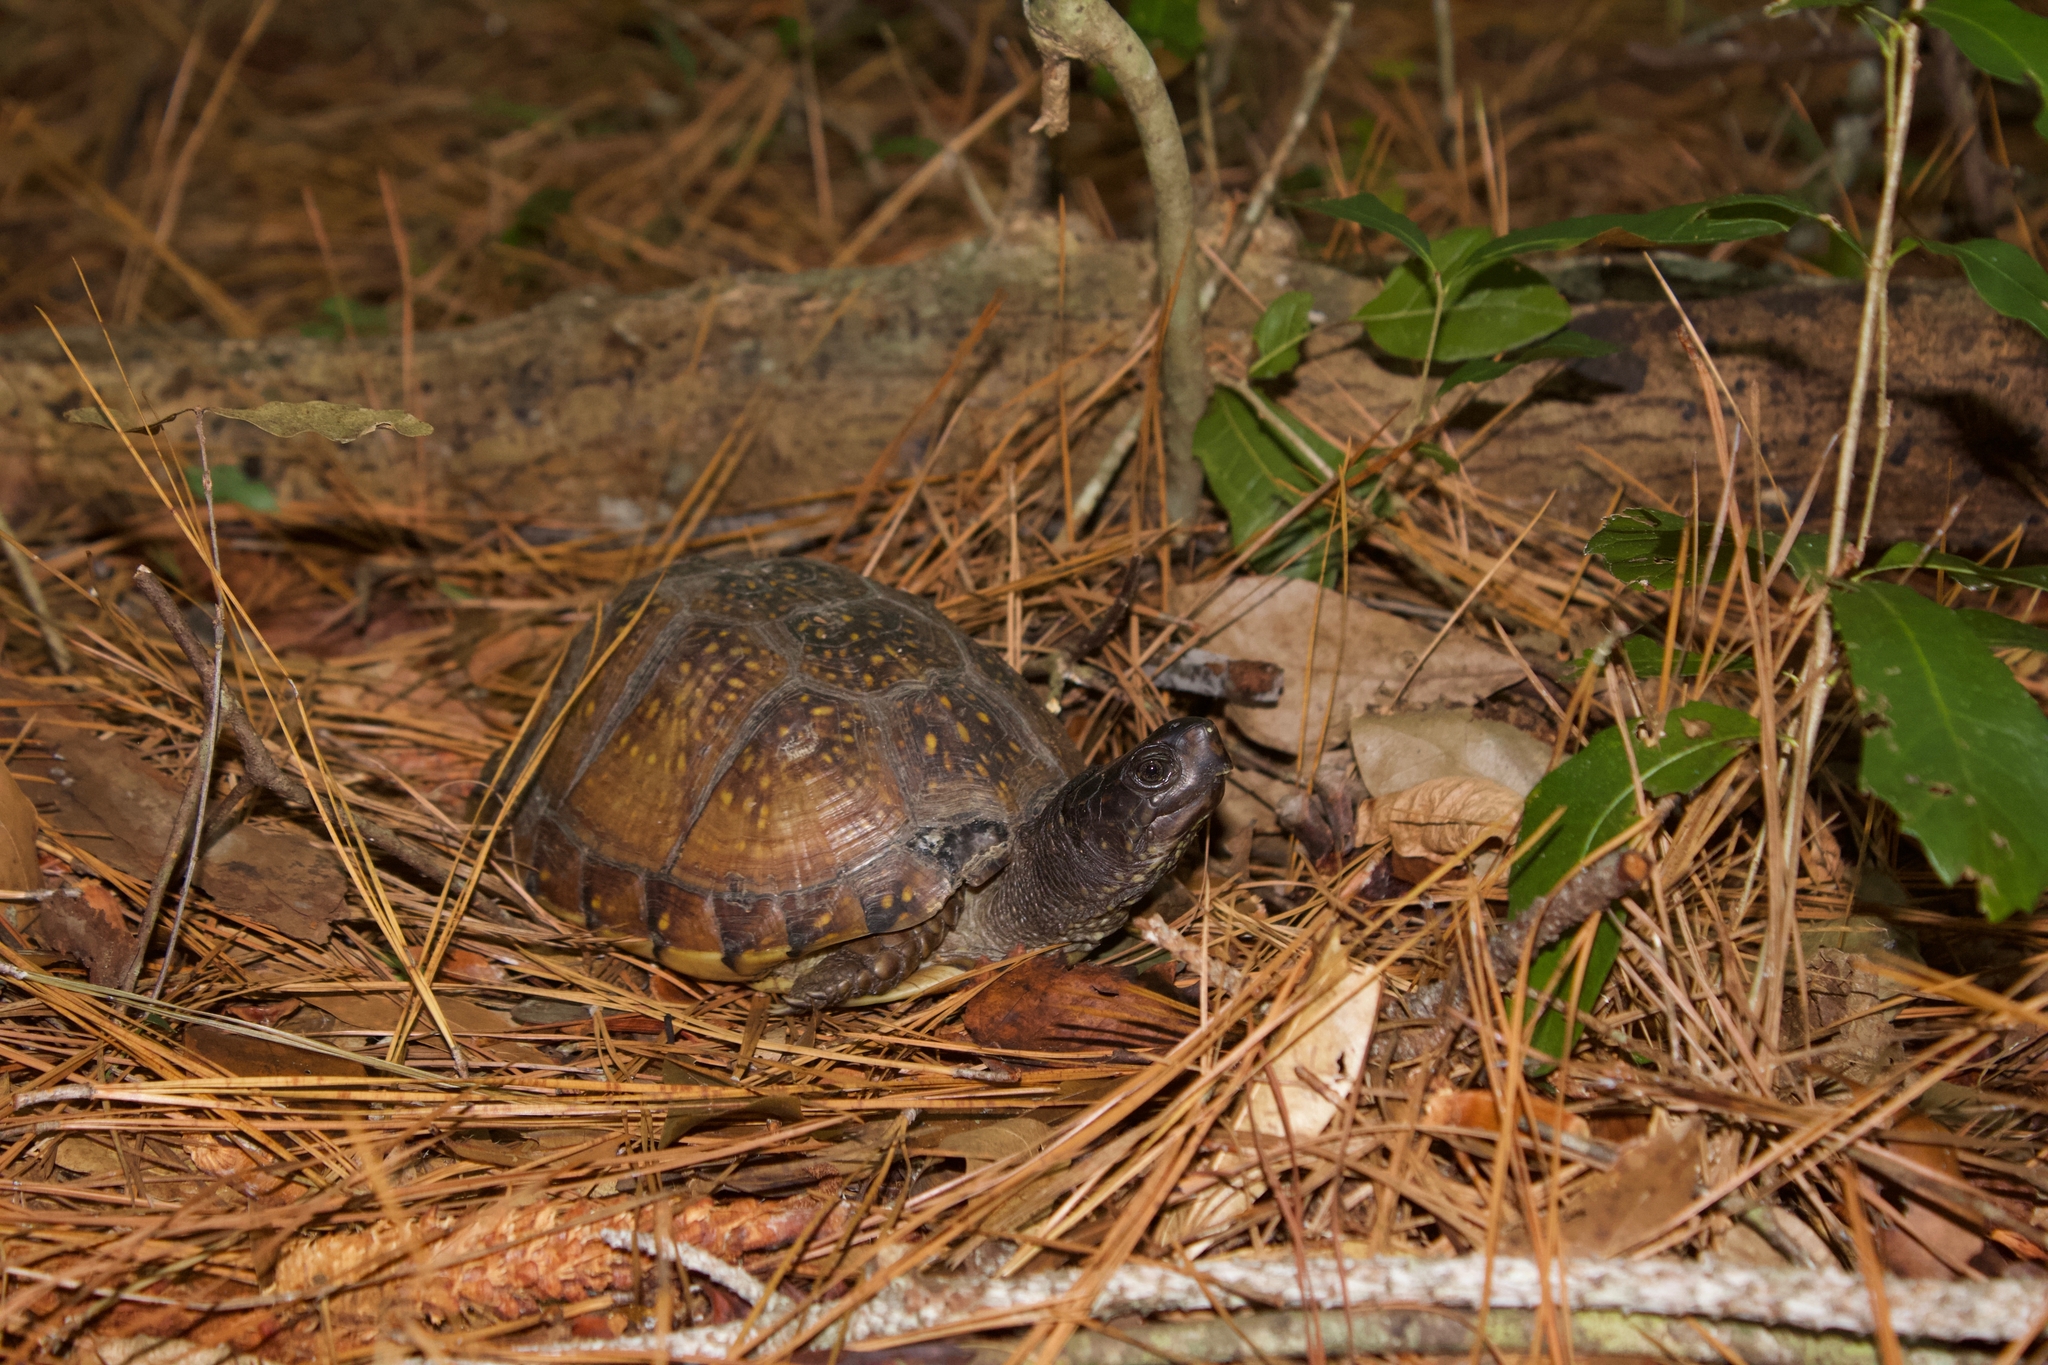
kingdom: Animalia
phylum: Chordata
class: Testudines
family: Emydidae
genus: Terrapene
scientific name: Terrapene carolina
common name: Common box turtle
